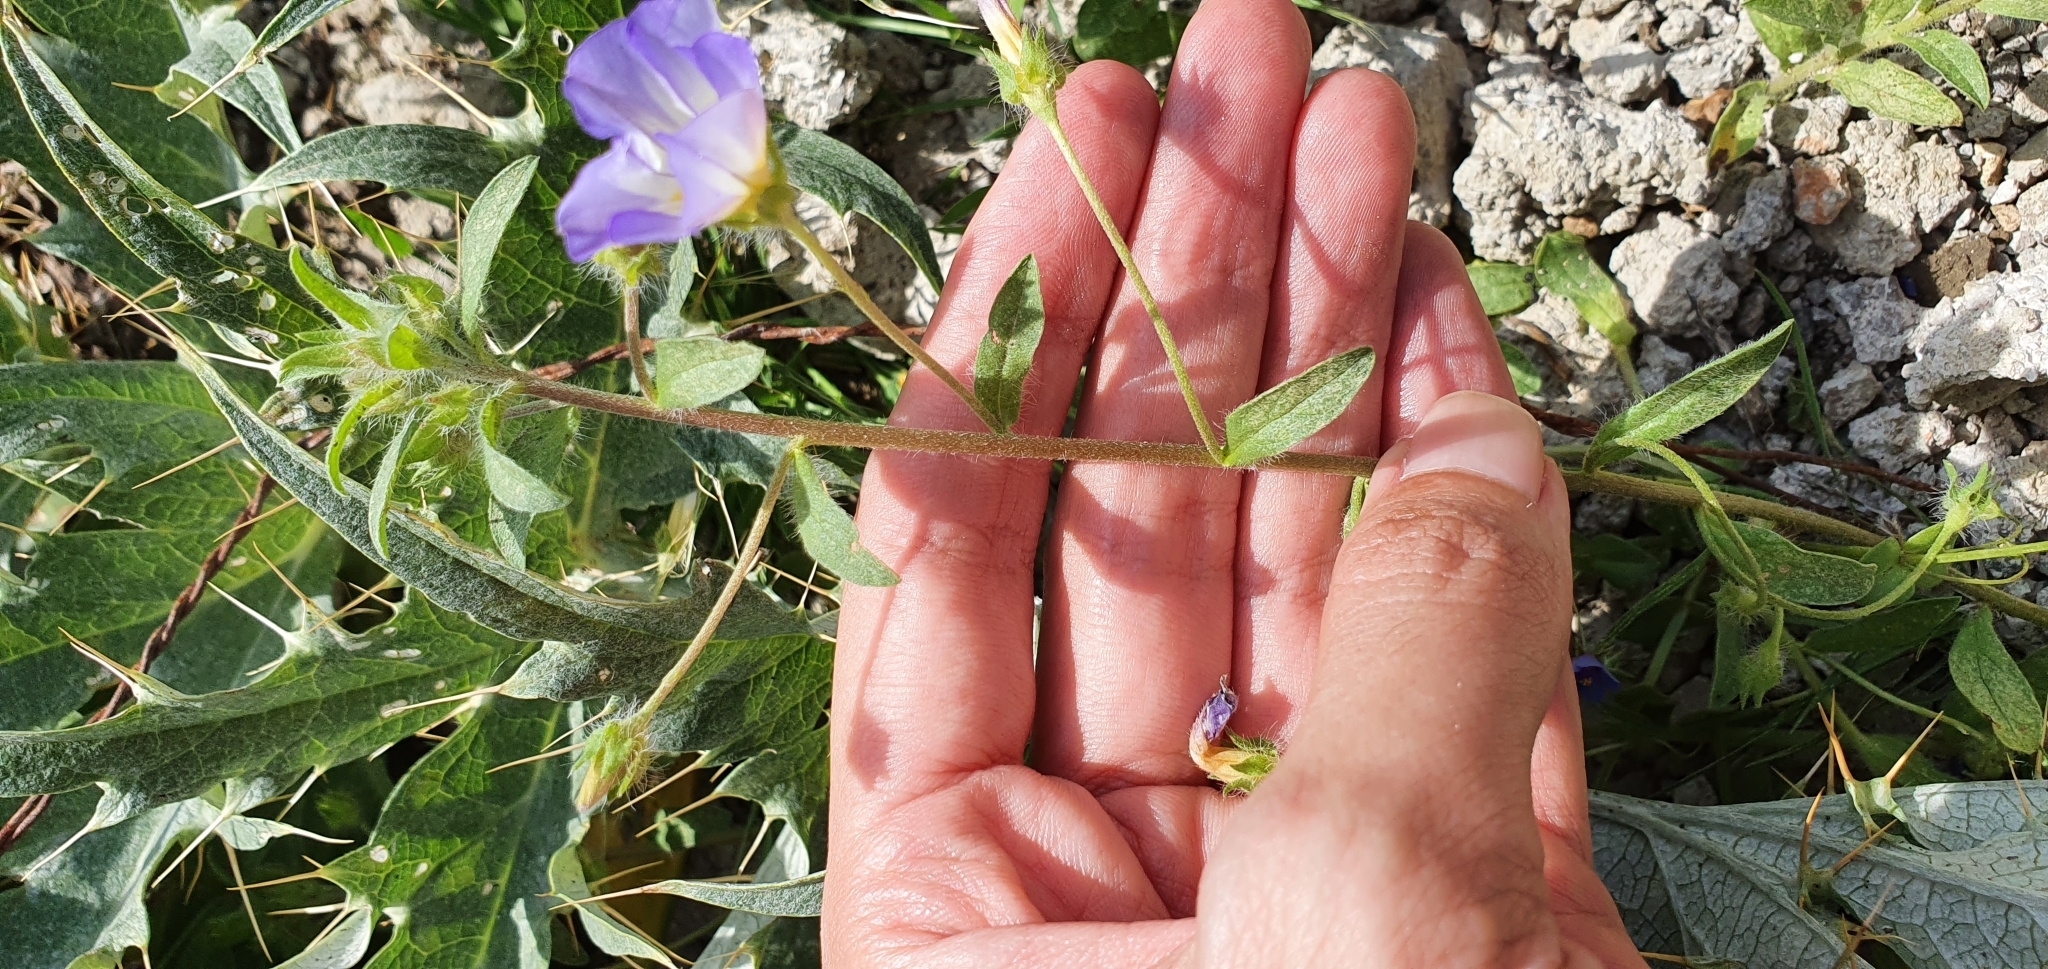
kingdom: Plantae
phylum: Tracheophyta
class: Magnoliopsida
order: Solanales
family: Convolvulaceae
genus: Convolvulus
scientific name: Convolvulus tricolor
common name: Dwarf morning-glory
